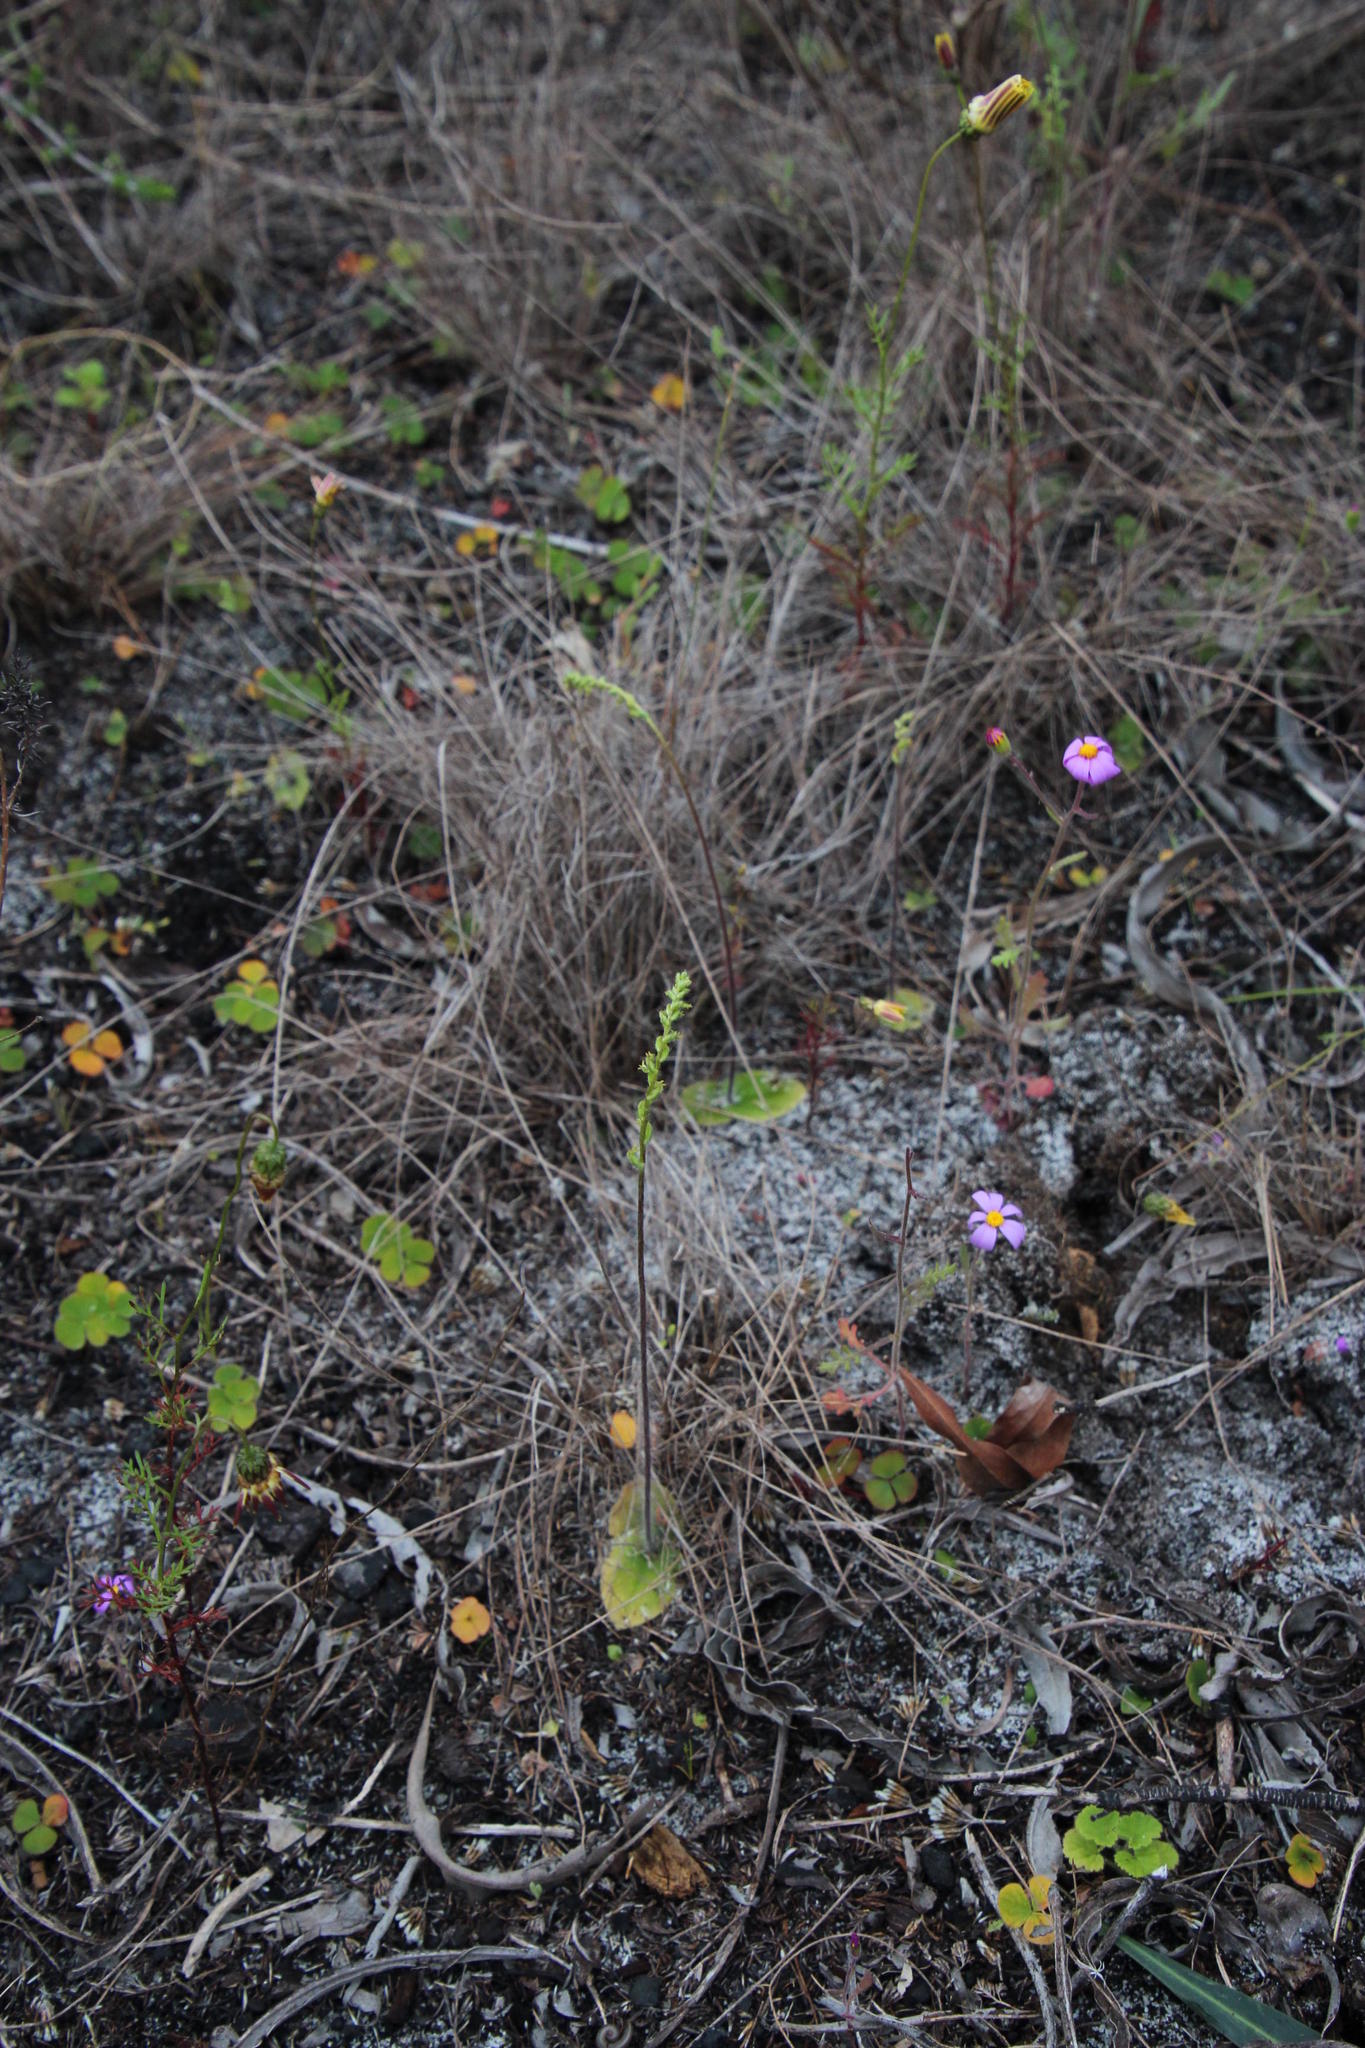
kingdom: Plantae
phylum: Tracheophyta
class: Liliopsida
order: Asparagales
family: Orchidaceae
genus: Holothrix
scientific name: Holothrix villosa
